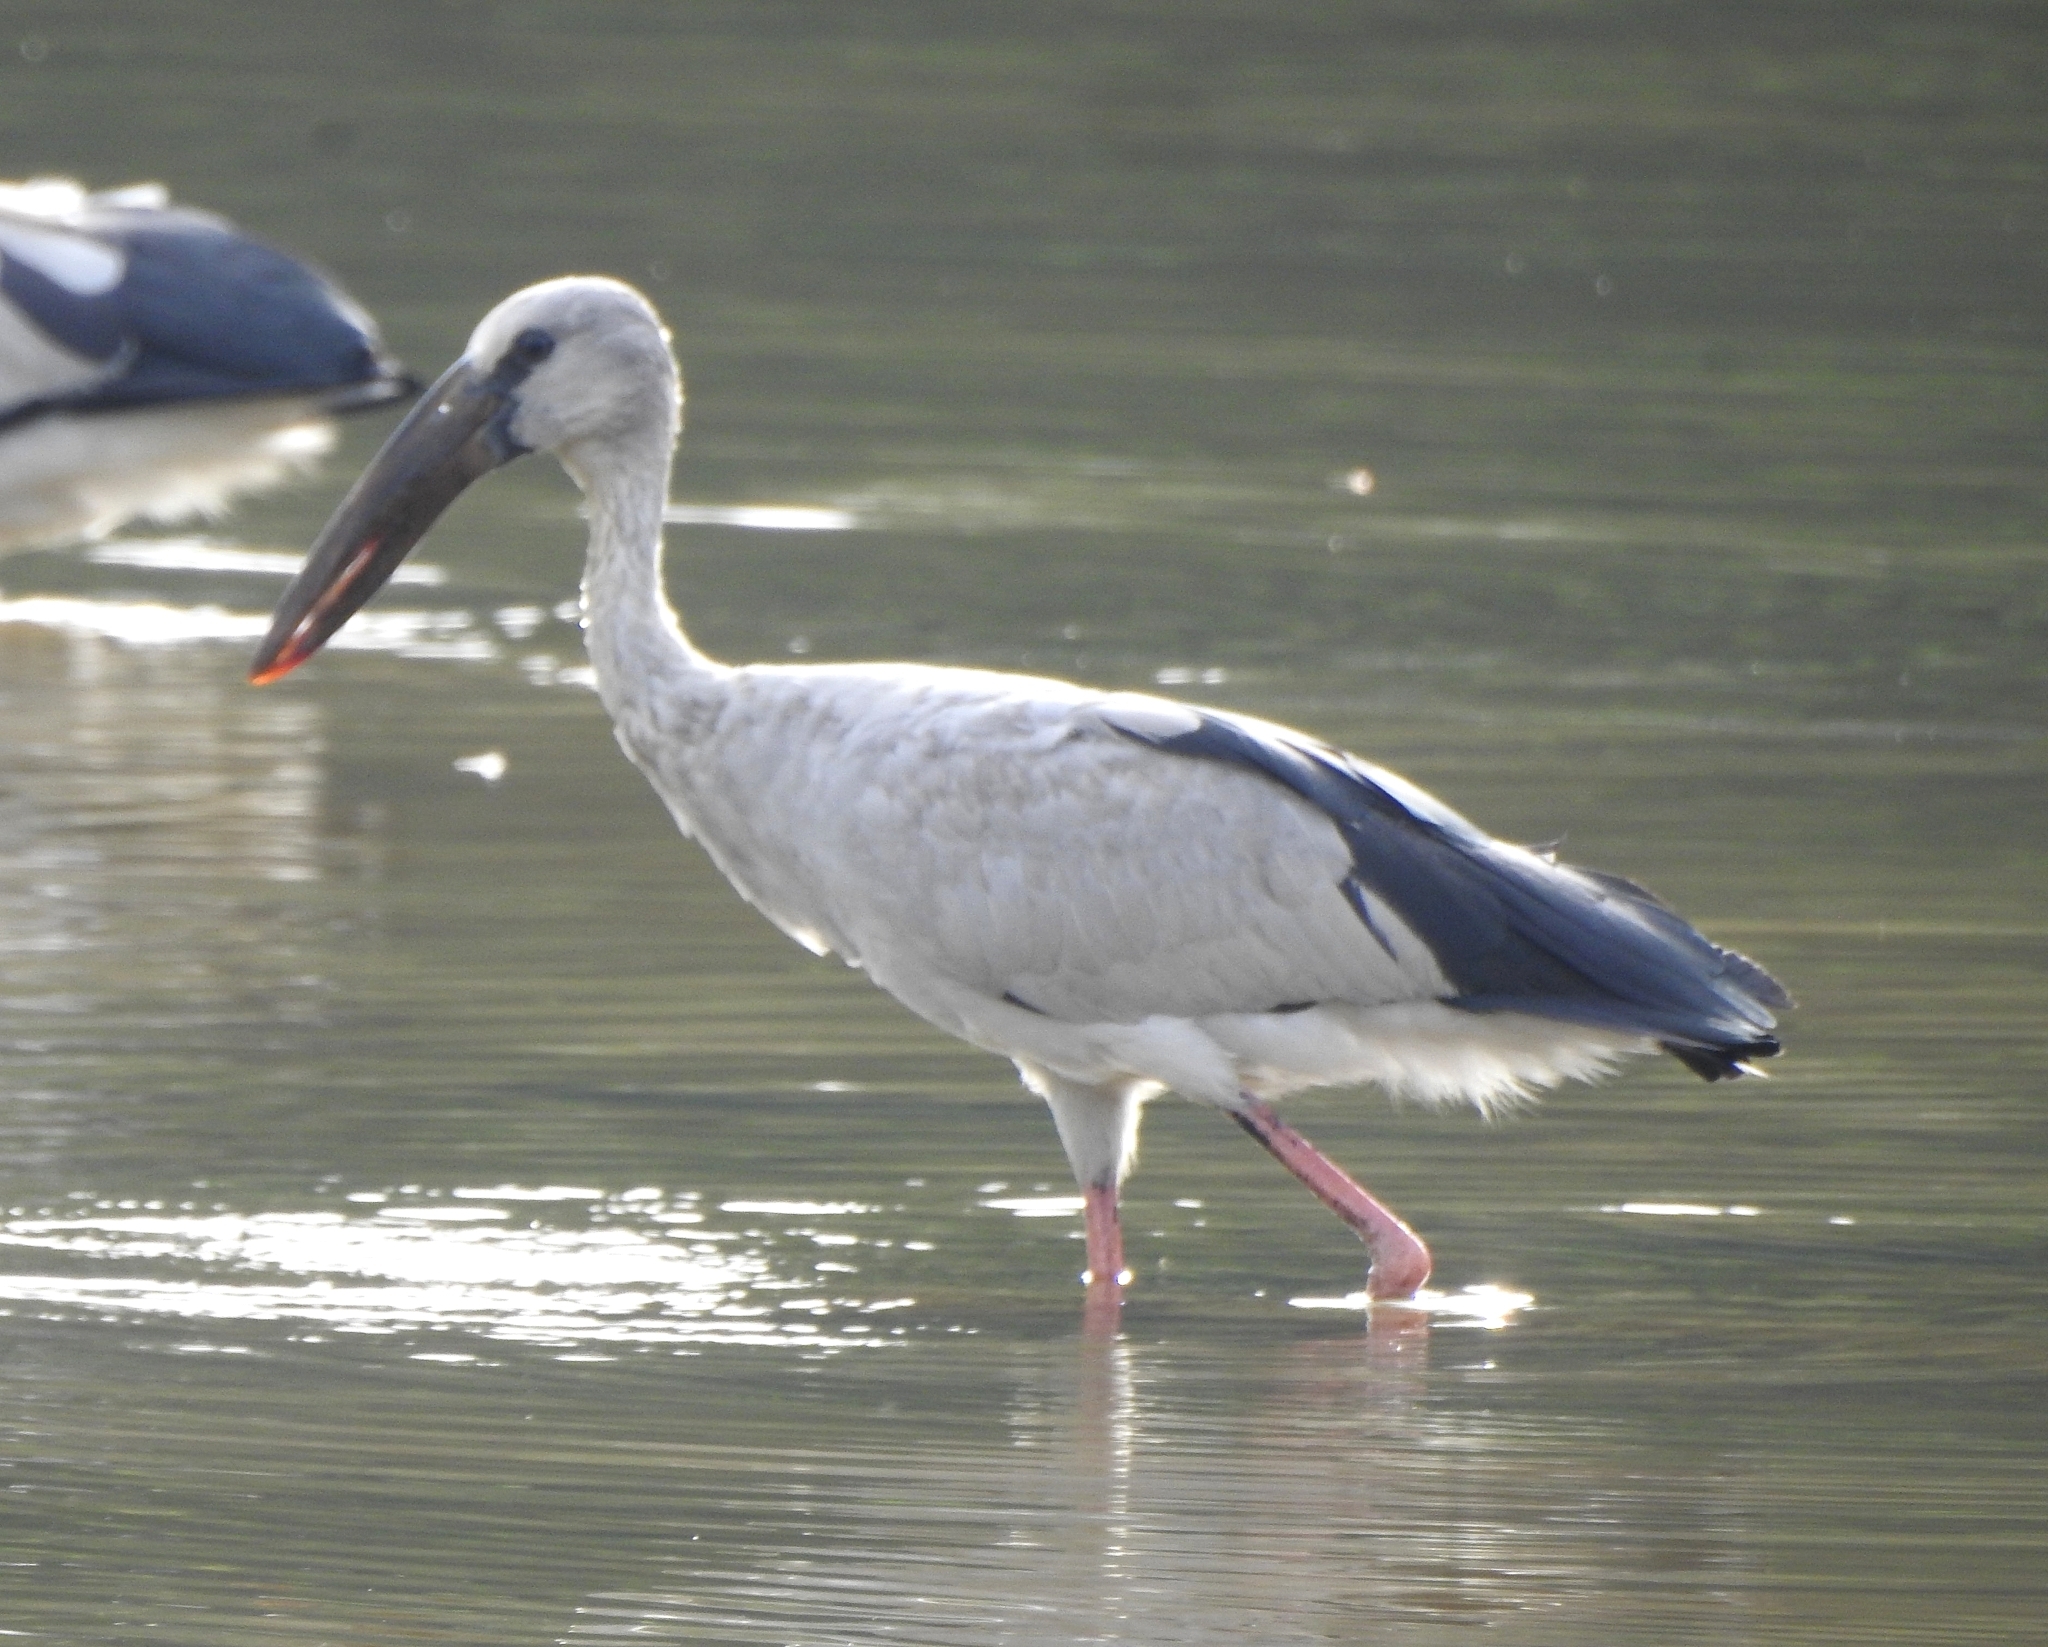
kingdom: Animalia
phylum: Chordata
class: Aves
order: Ciconiiformes
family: Ciconiidae
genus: Anastomus
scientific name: Anastomus oscitans
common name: Asian openbill
